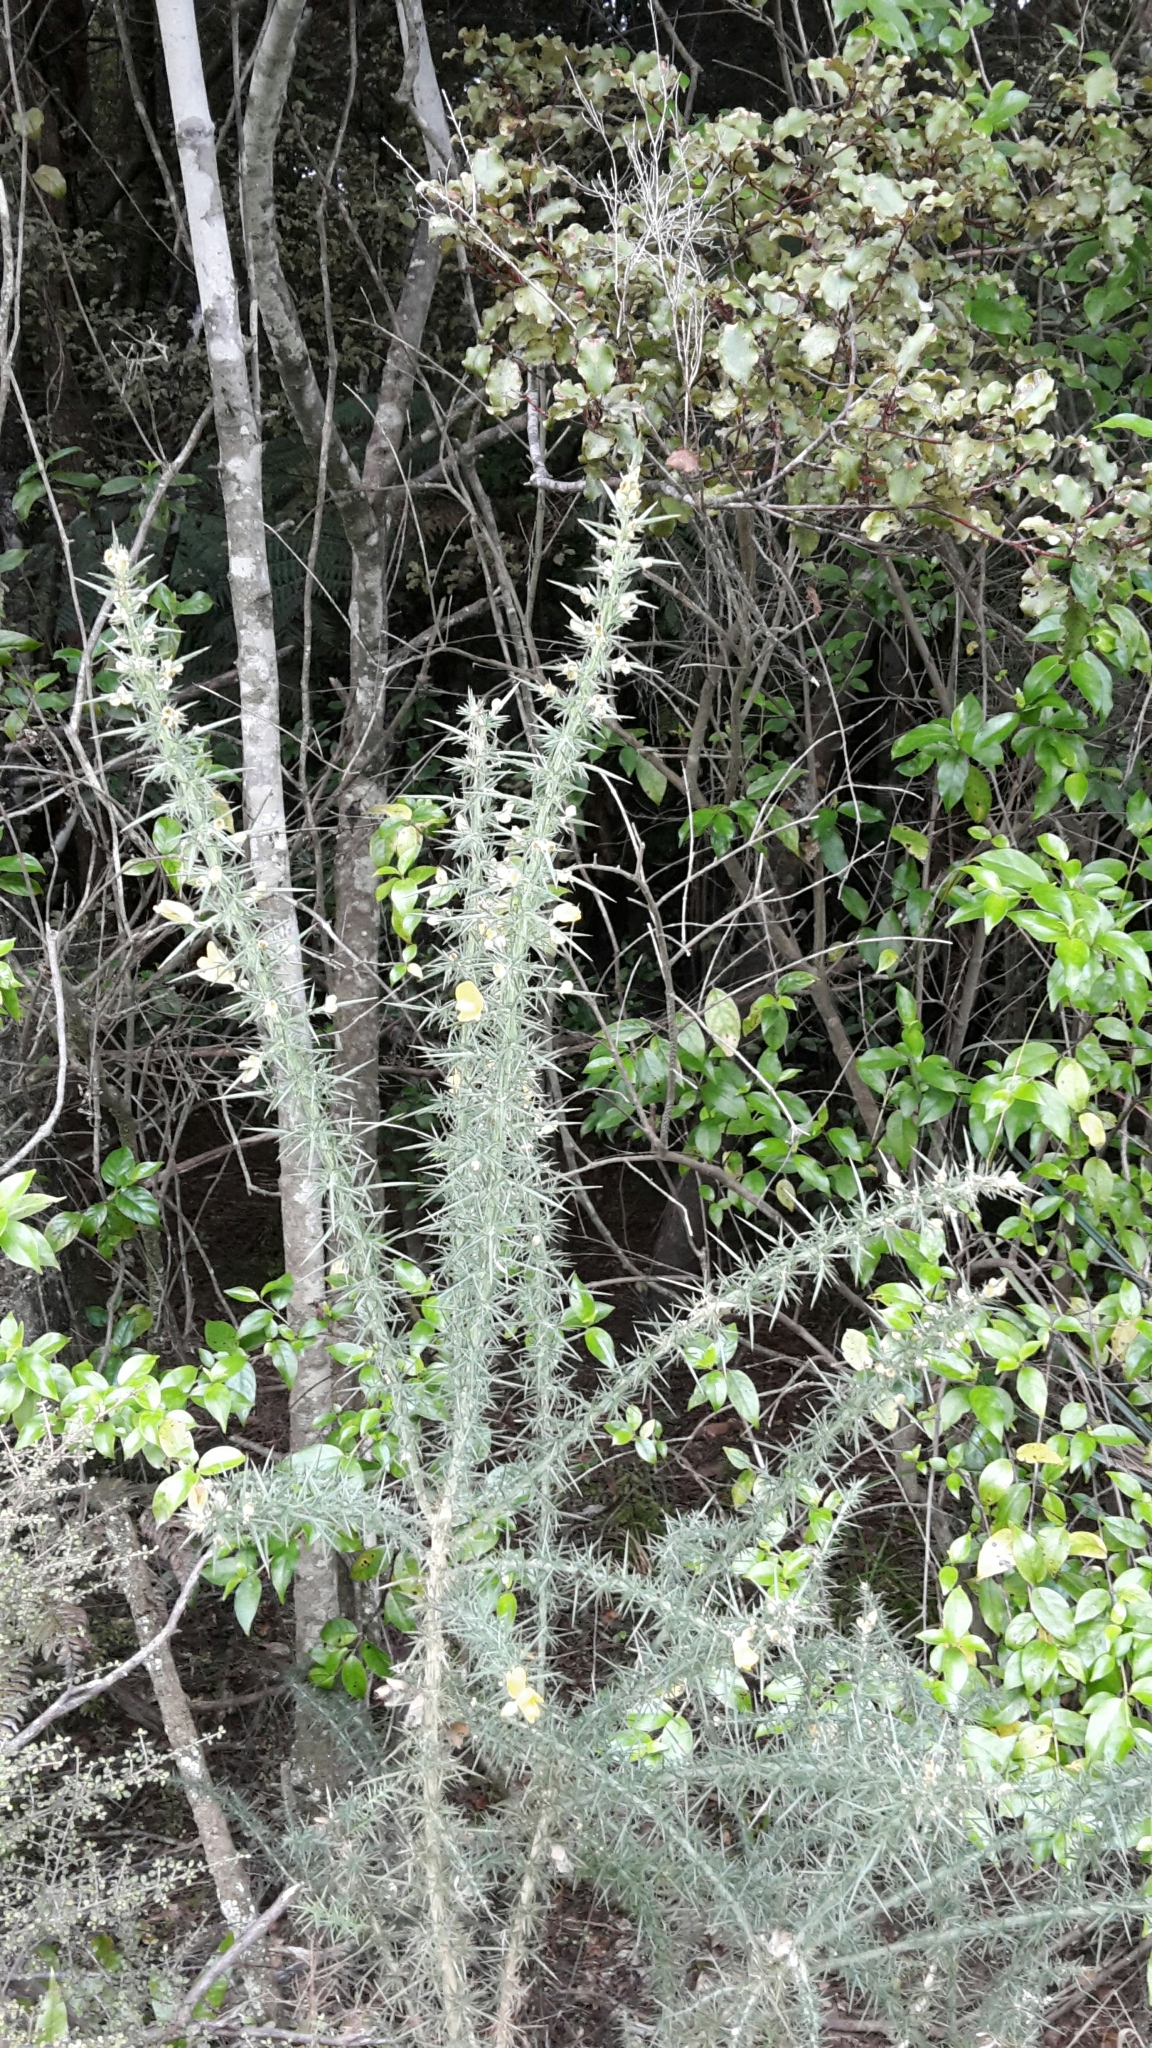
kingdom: Plantae
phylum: Tracheophyta
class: Magnoliopsida
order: Fabales
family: Fabaceae
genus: Ulex
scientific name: Ulex europaeus
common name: Common gorse
